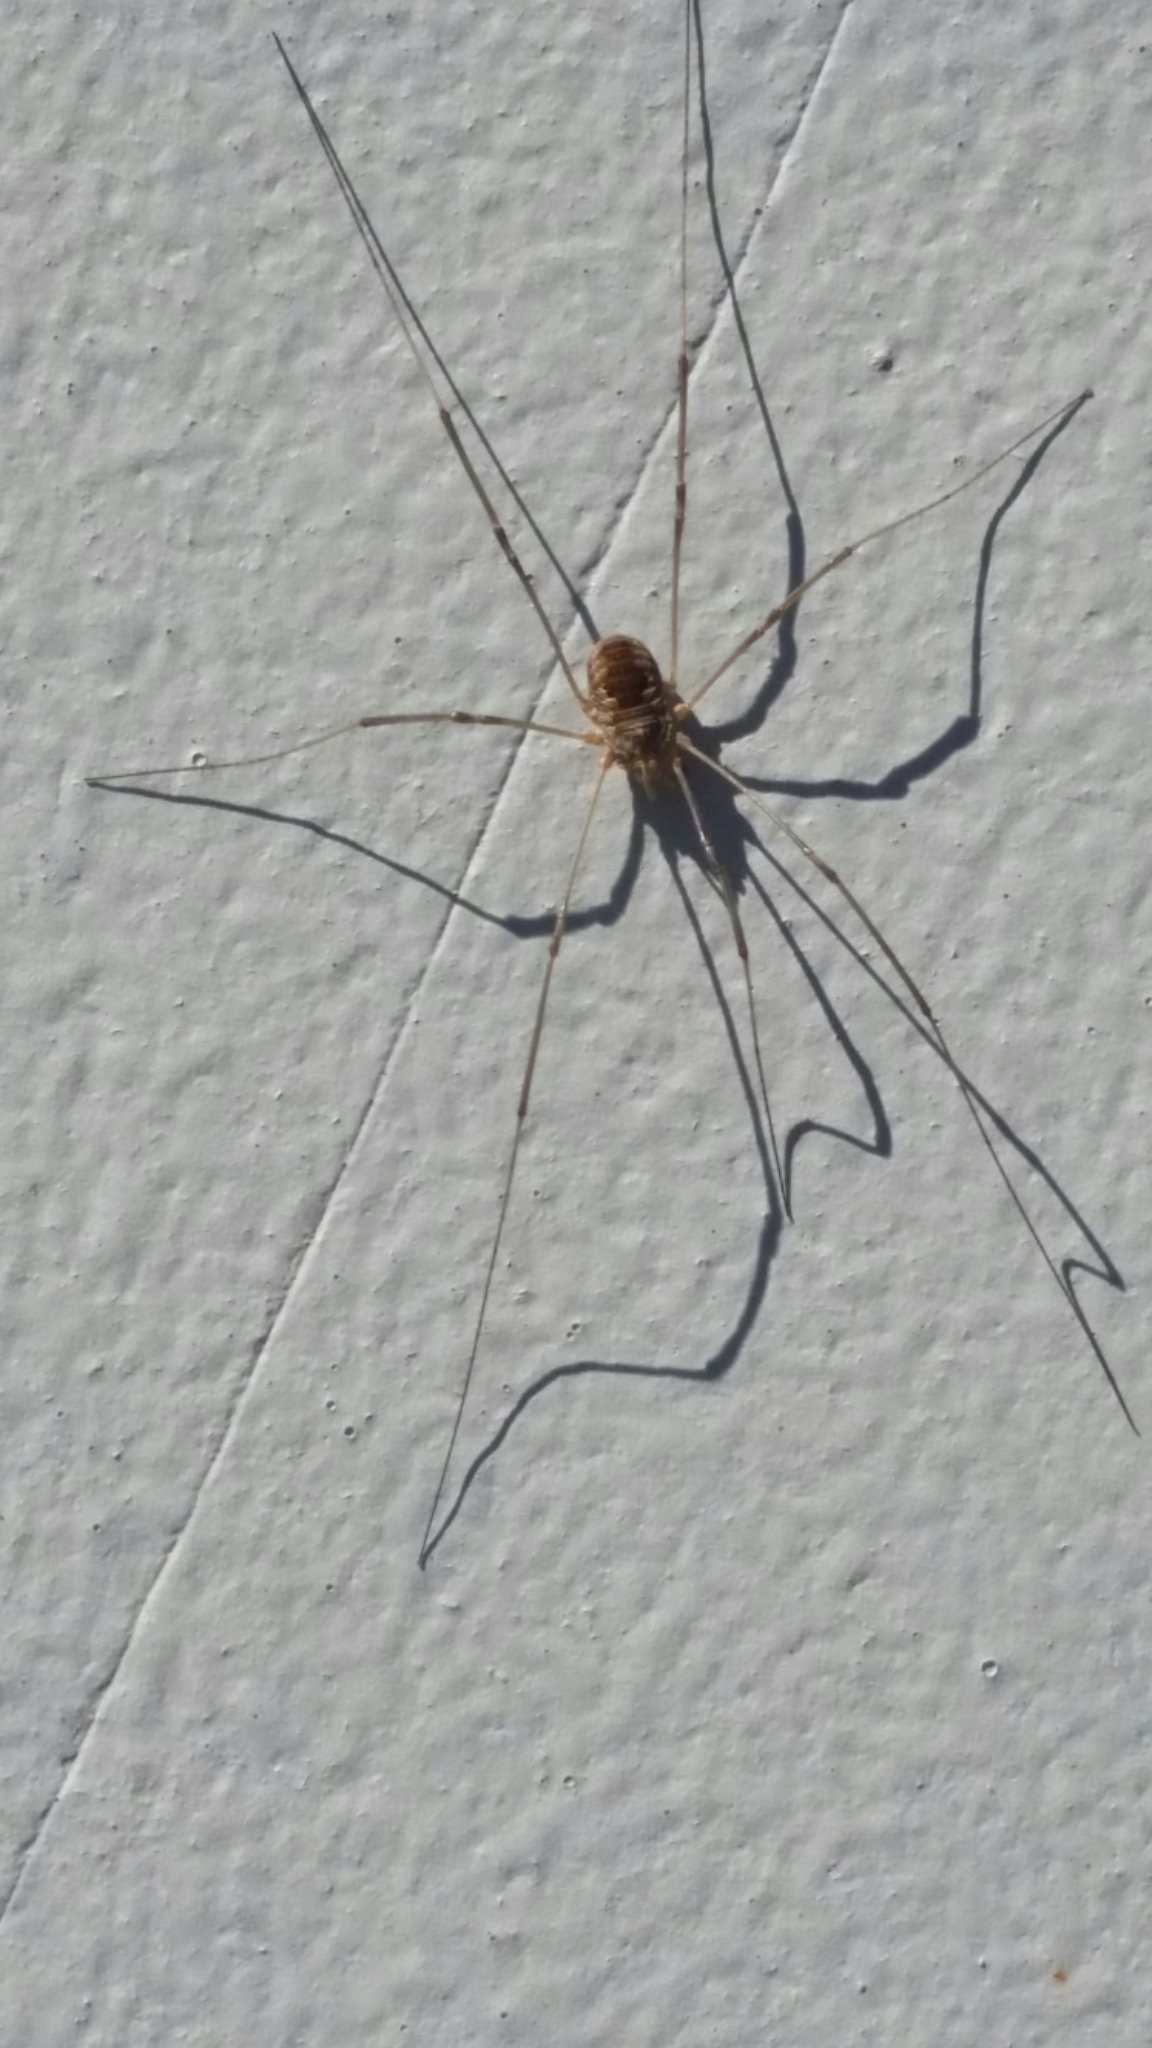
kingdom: Animalia
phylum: Arthropoda
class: Arachnida
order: Opiliones
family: Phalangiidae
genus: Phalangium
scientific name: Phalangium opilio
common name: Daddy longleg
